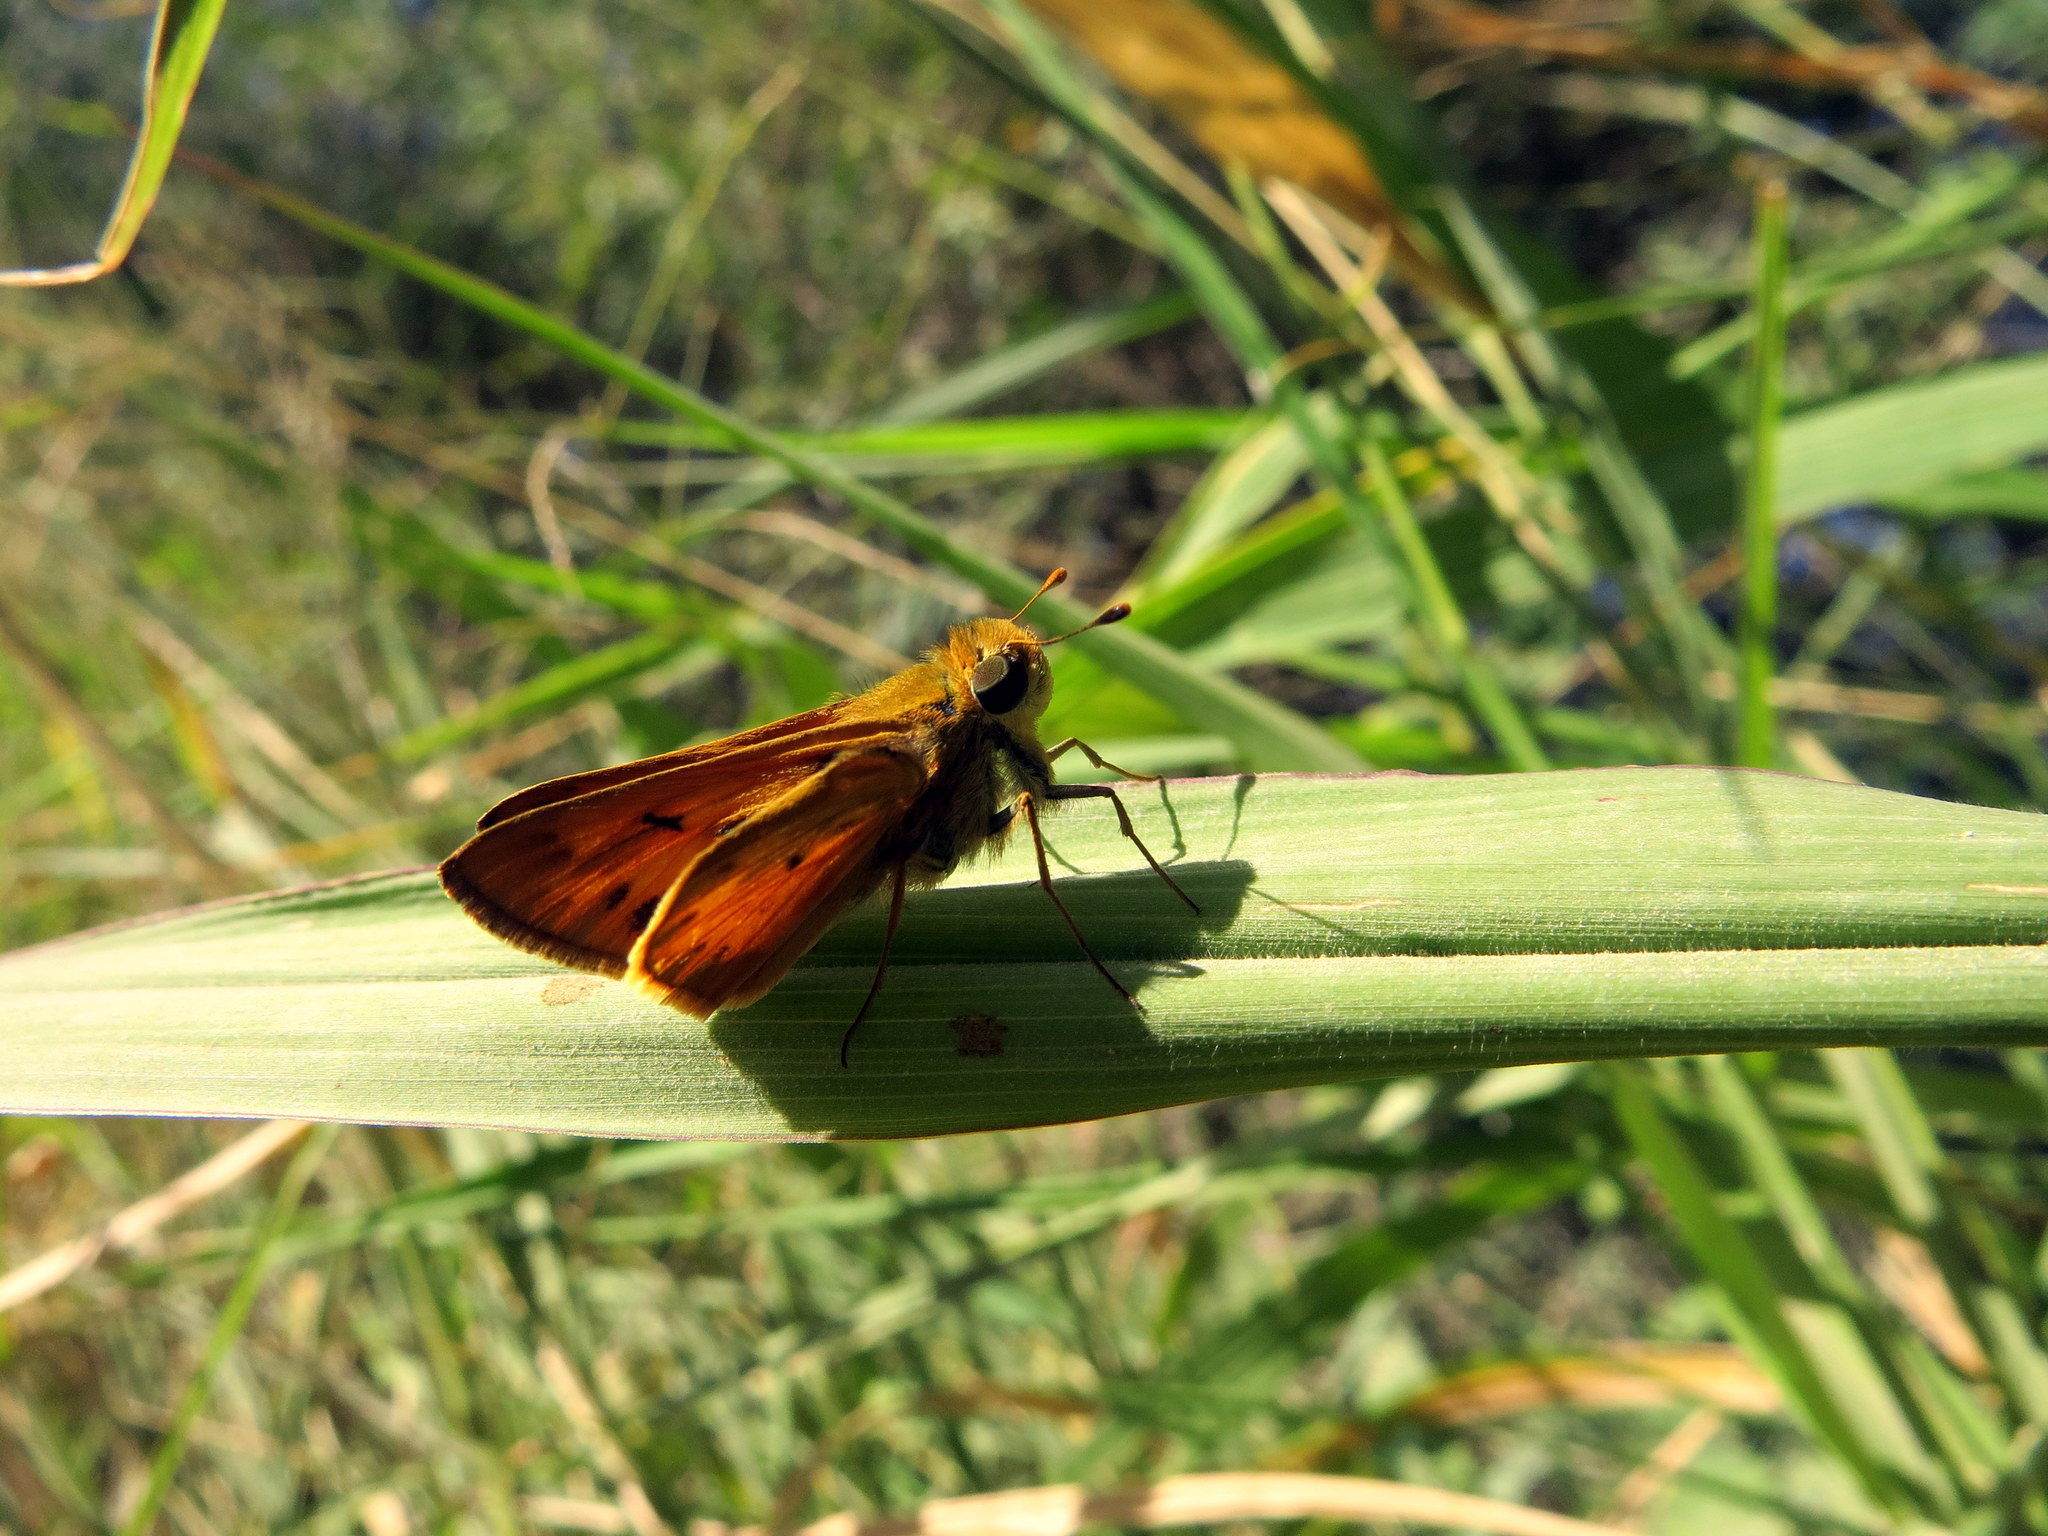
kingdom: Animalia
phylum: Arthropoda
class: Insecta
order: Lepidoptera
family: Hesperiidae
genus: Hylephila
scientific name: Hylephila phyleus
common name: Fiery skipper
